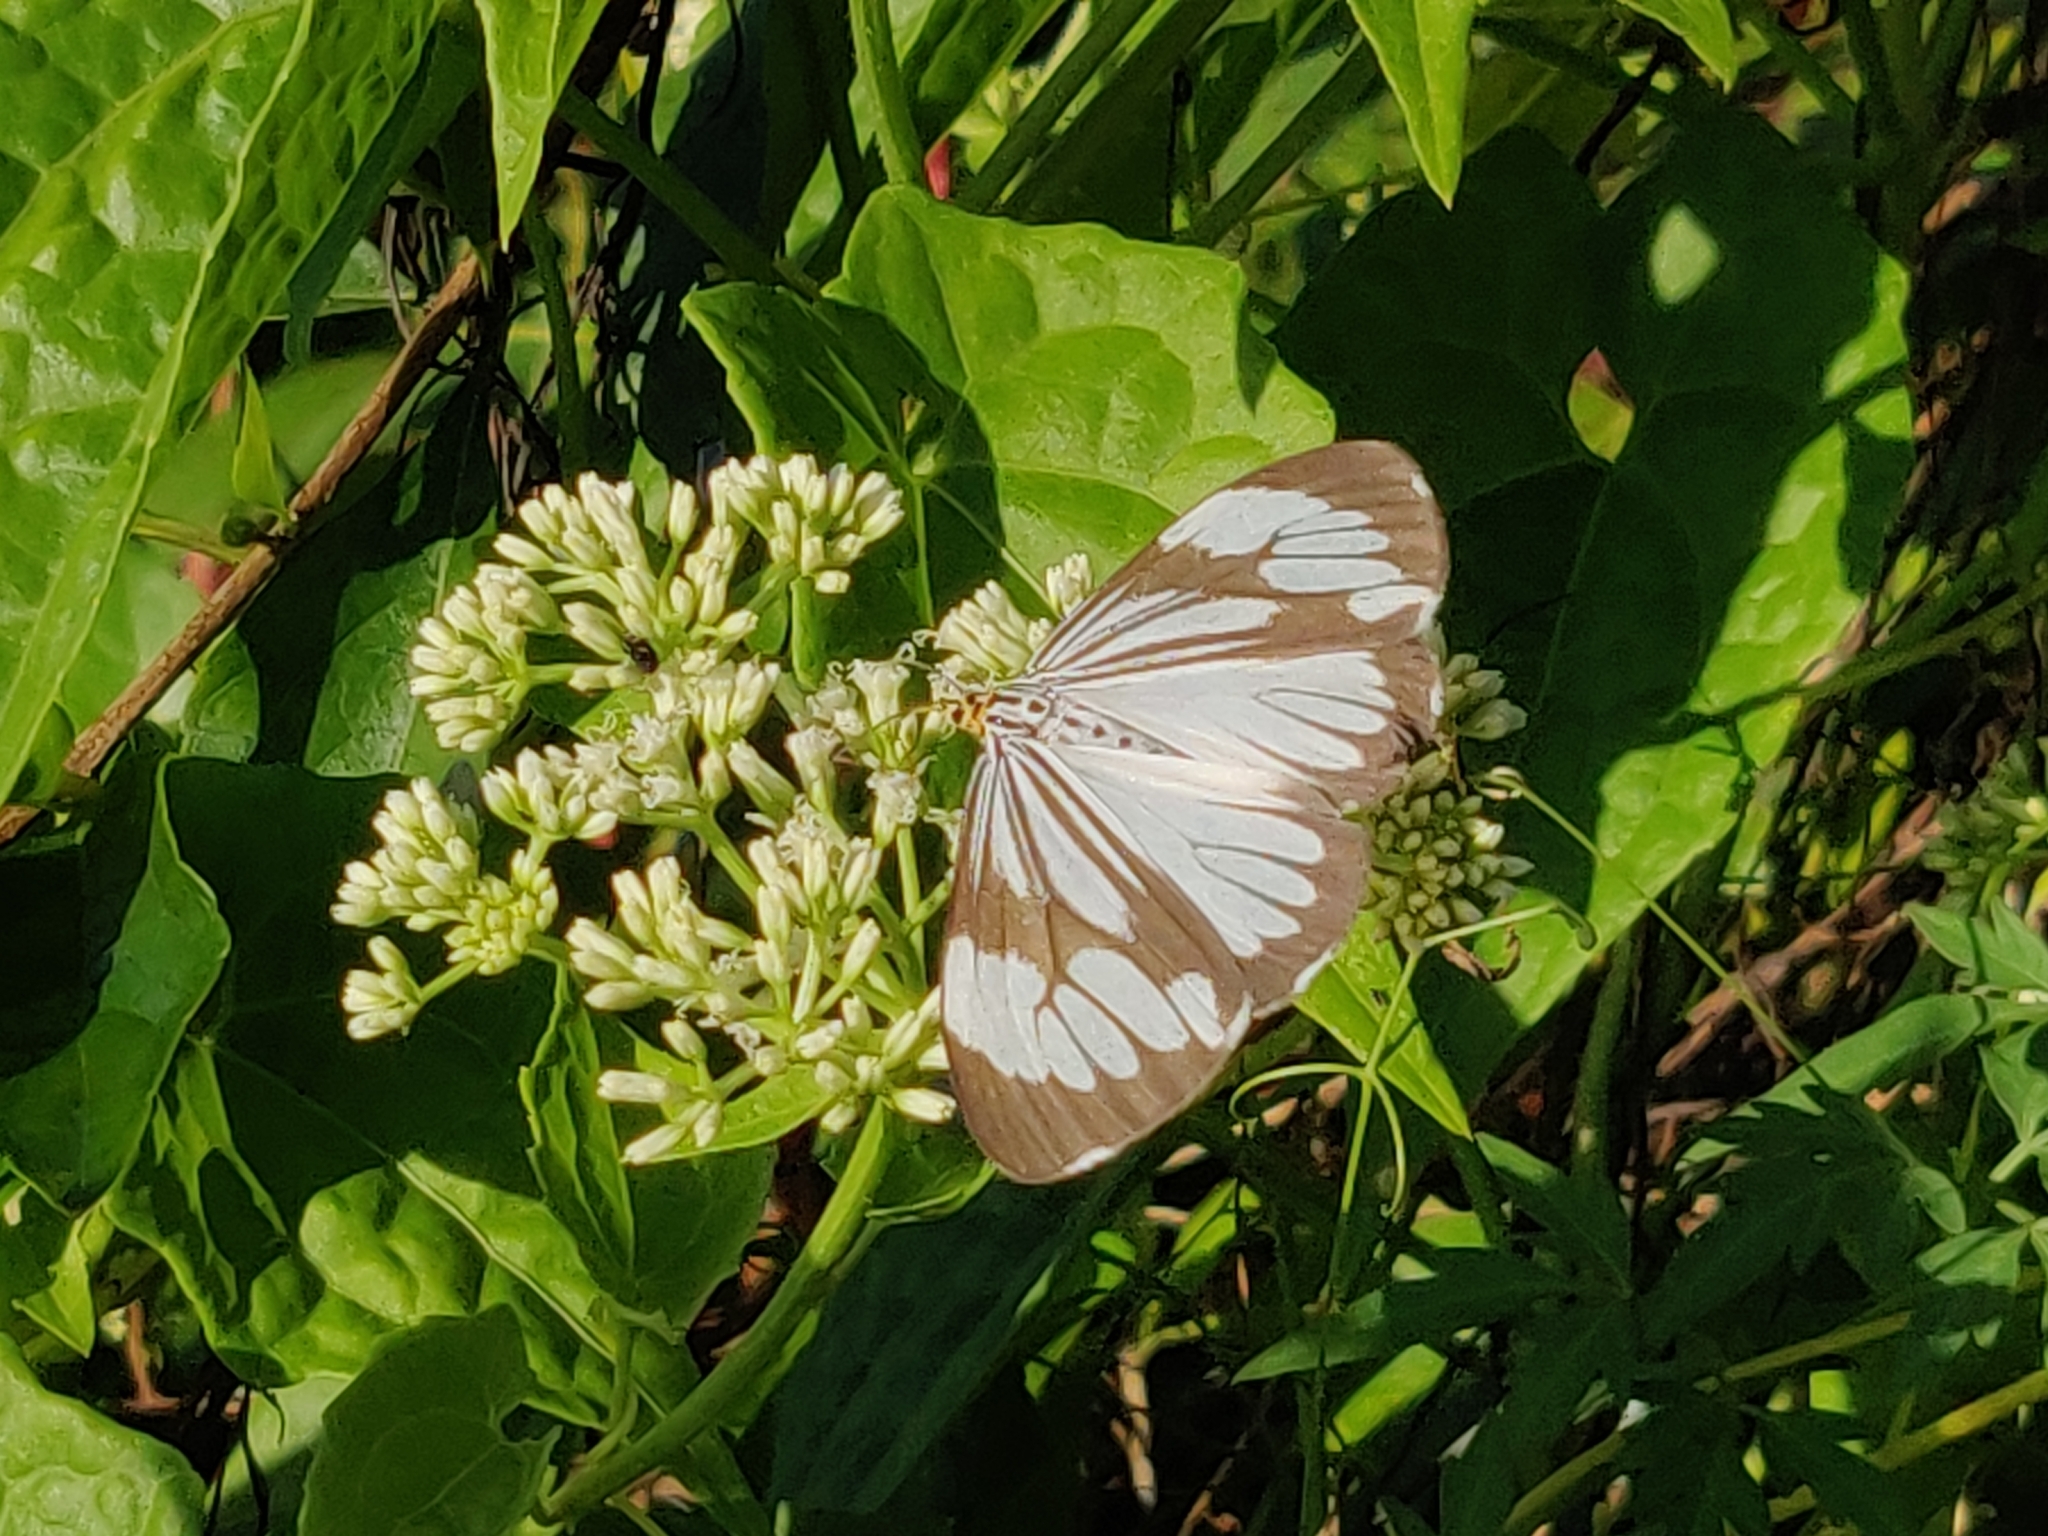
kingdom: Animalia
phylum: Arthropoda
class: Insecta
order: Lepidoptera
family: Erebidae
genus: Nyctemera
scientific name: Nyctemera coleta
